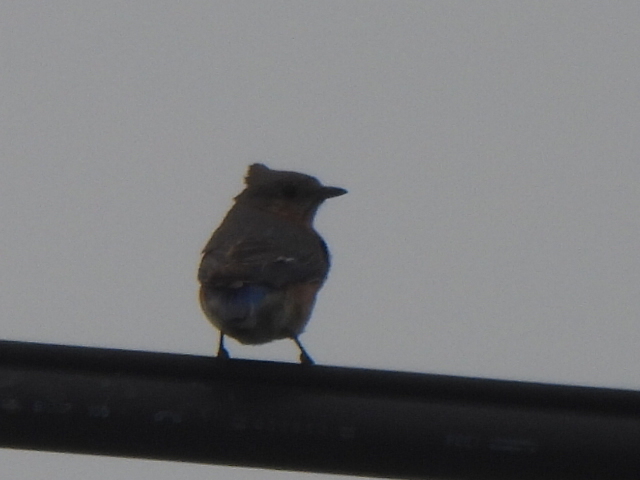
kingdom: Animalia
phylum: Chordata
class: Aves
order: Passeriformes
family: Turdidae
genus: Sialia
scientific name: Sialia sialis
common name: Eastern bluebird
